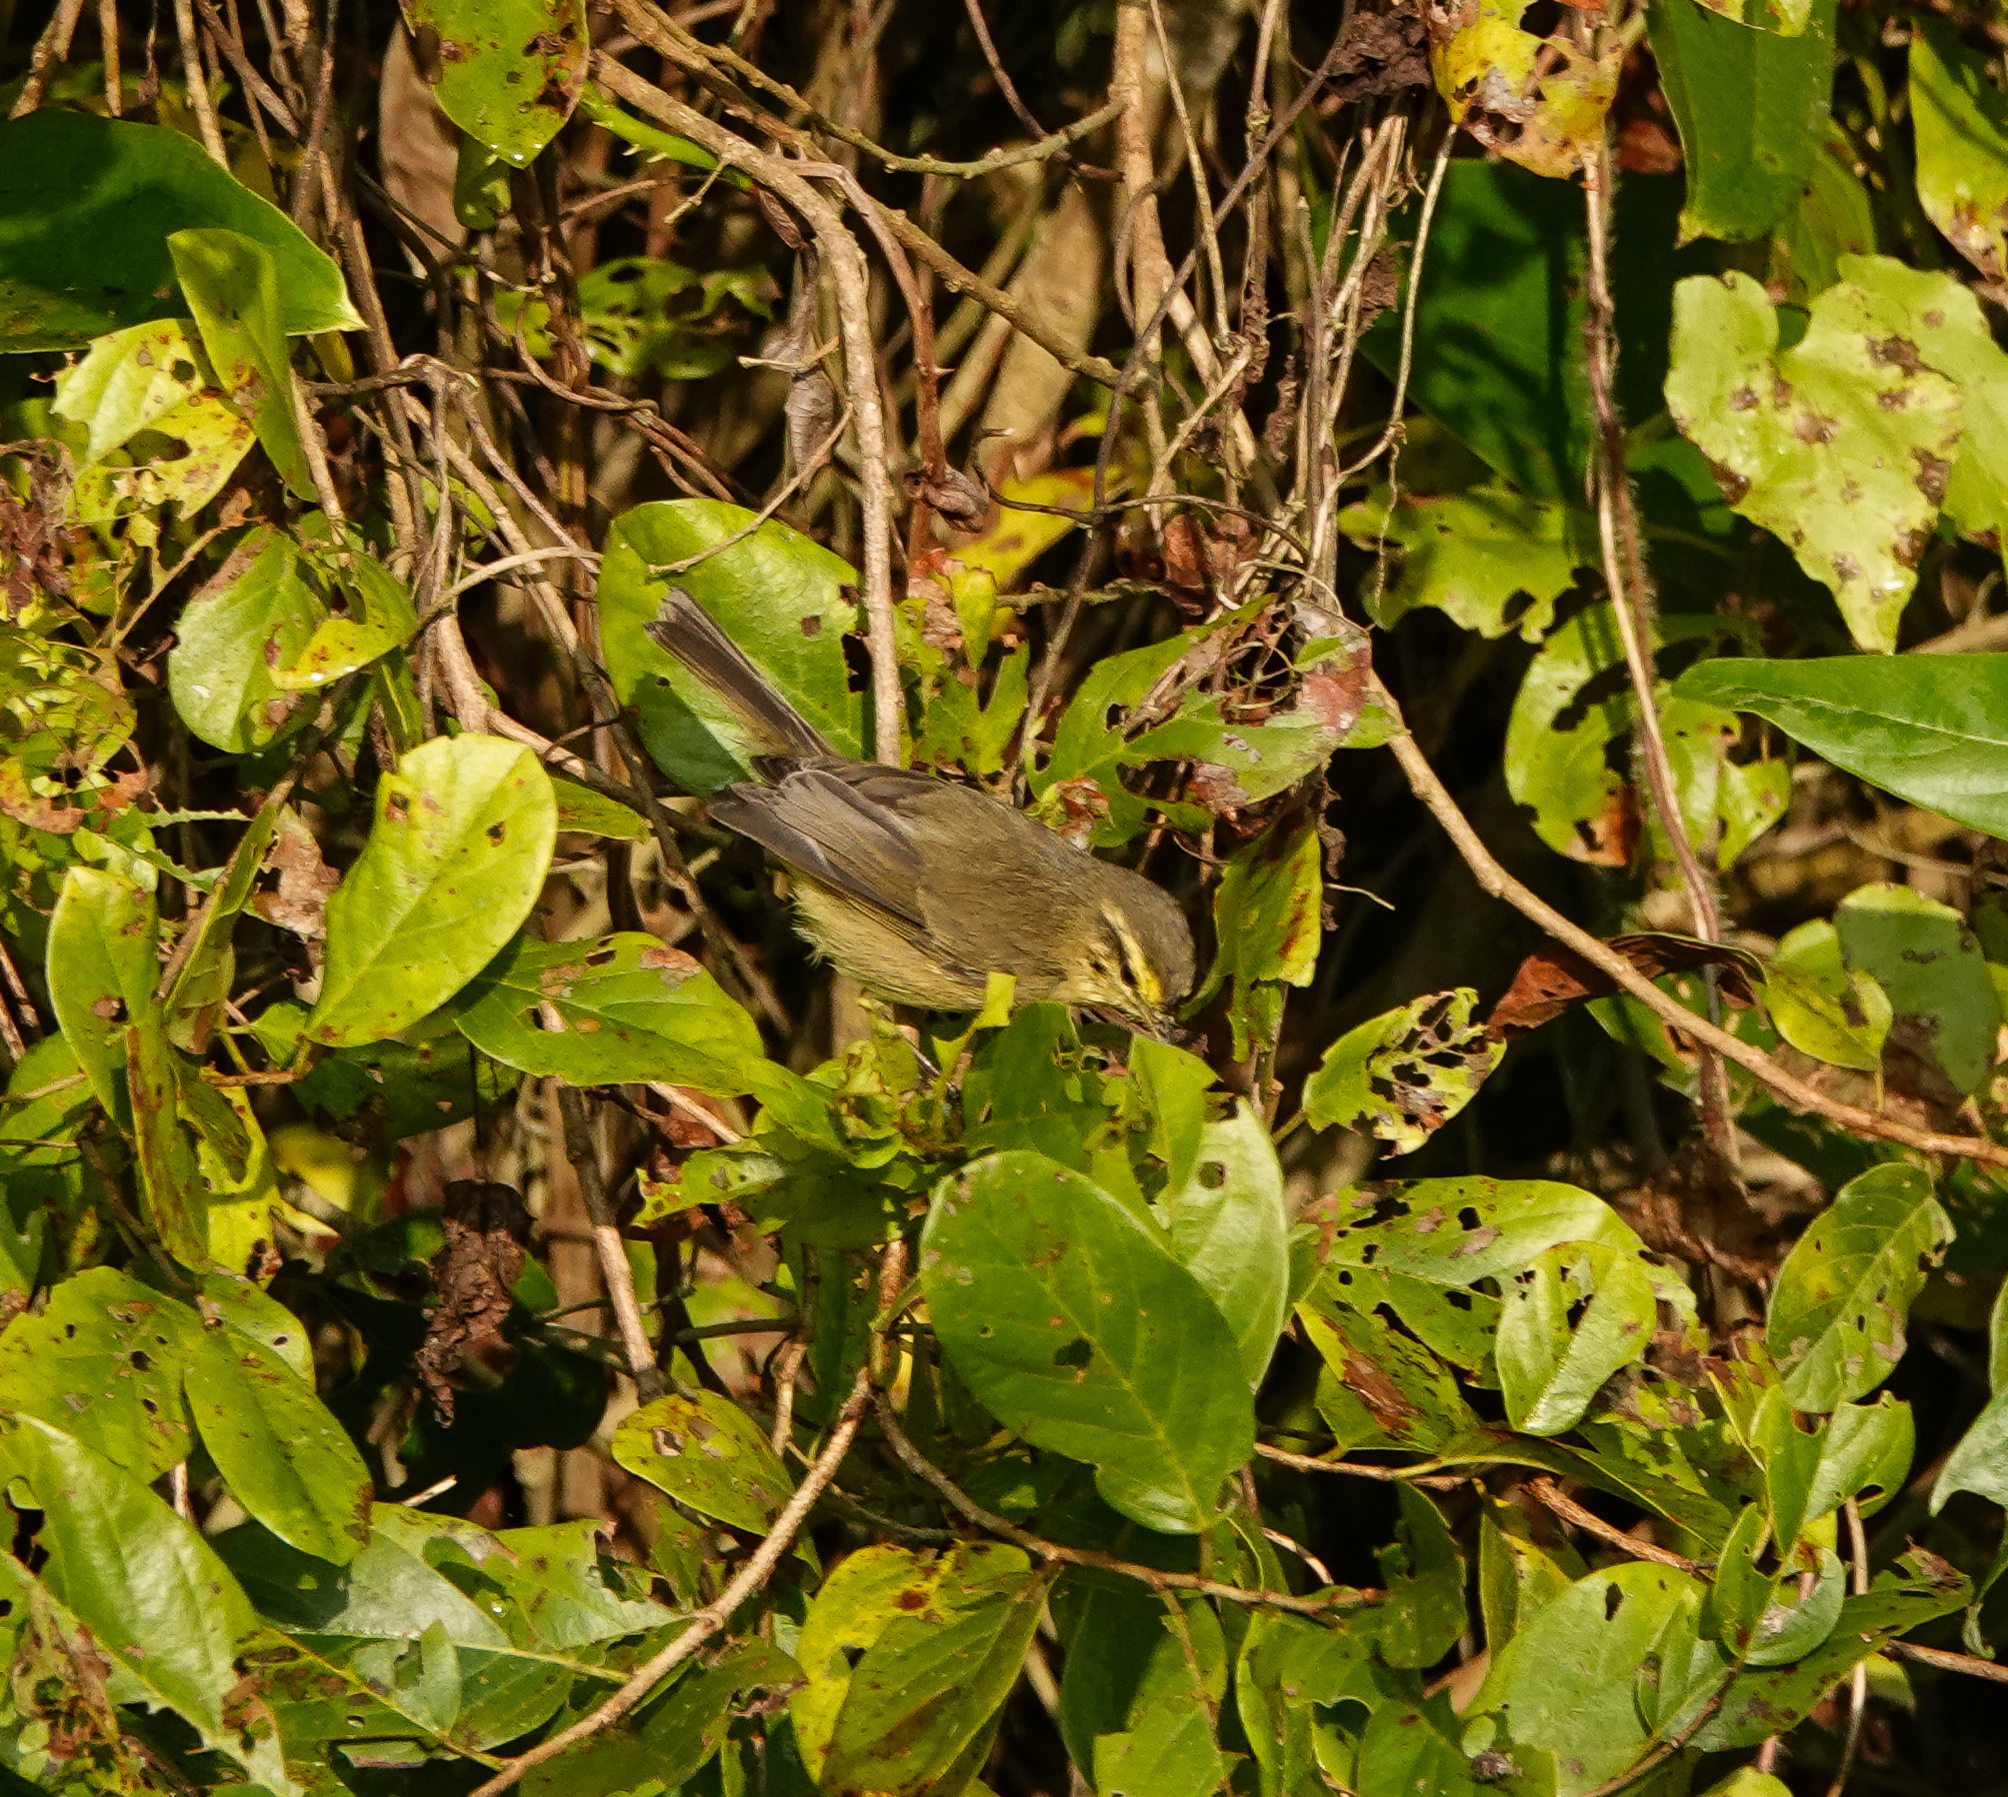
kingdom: Animalia
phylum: Chordata
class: Aves
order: Passeriformes
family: Phylloscopidae
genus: Phylloscopus
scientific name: Phylloscopus affinis
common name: Tickell's leaf warbler
